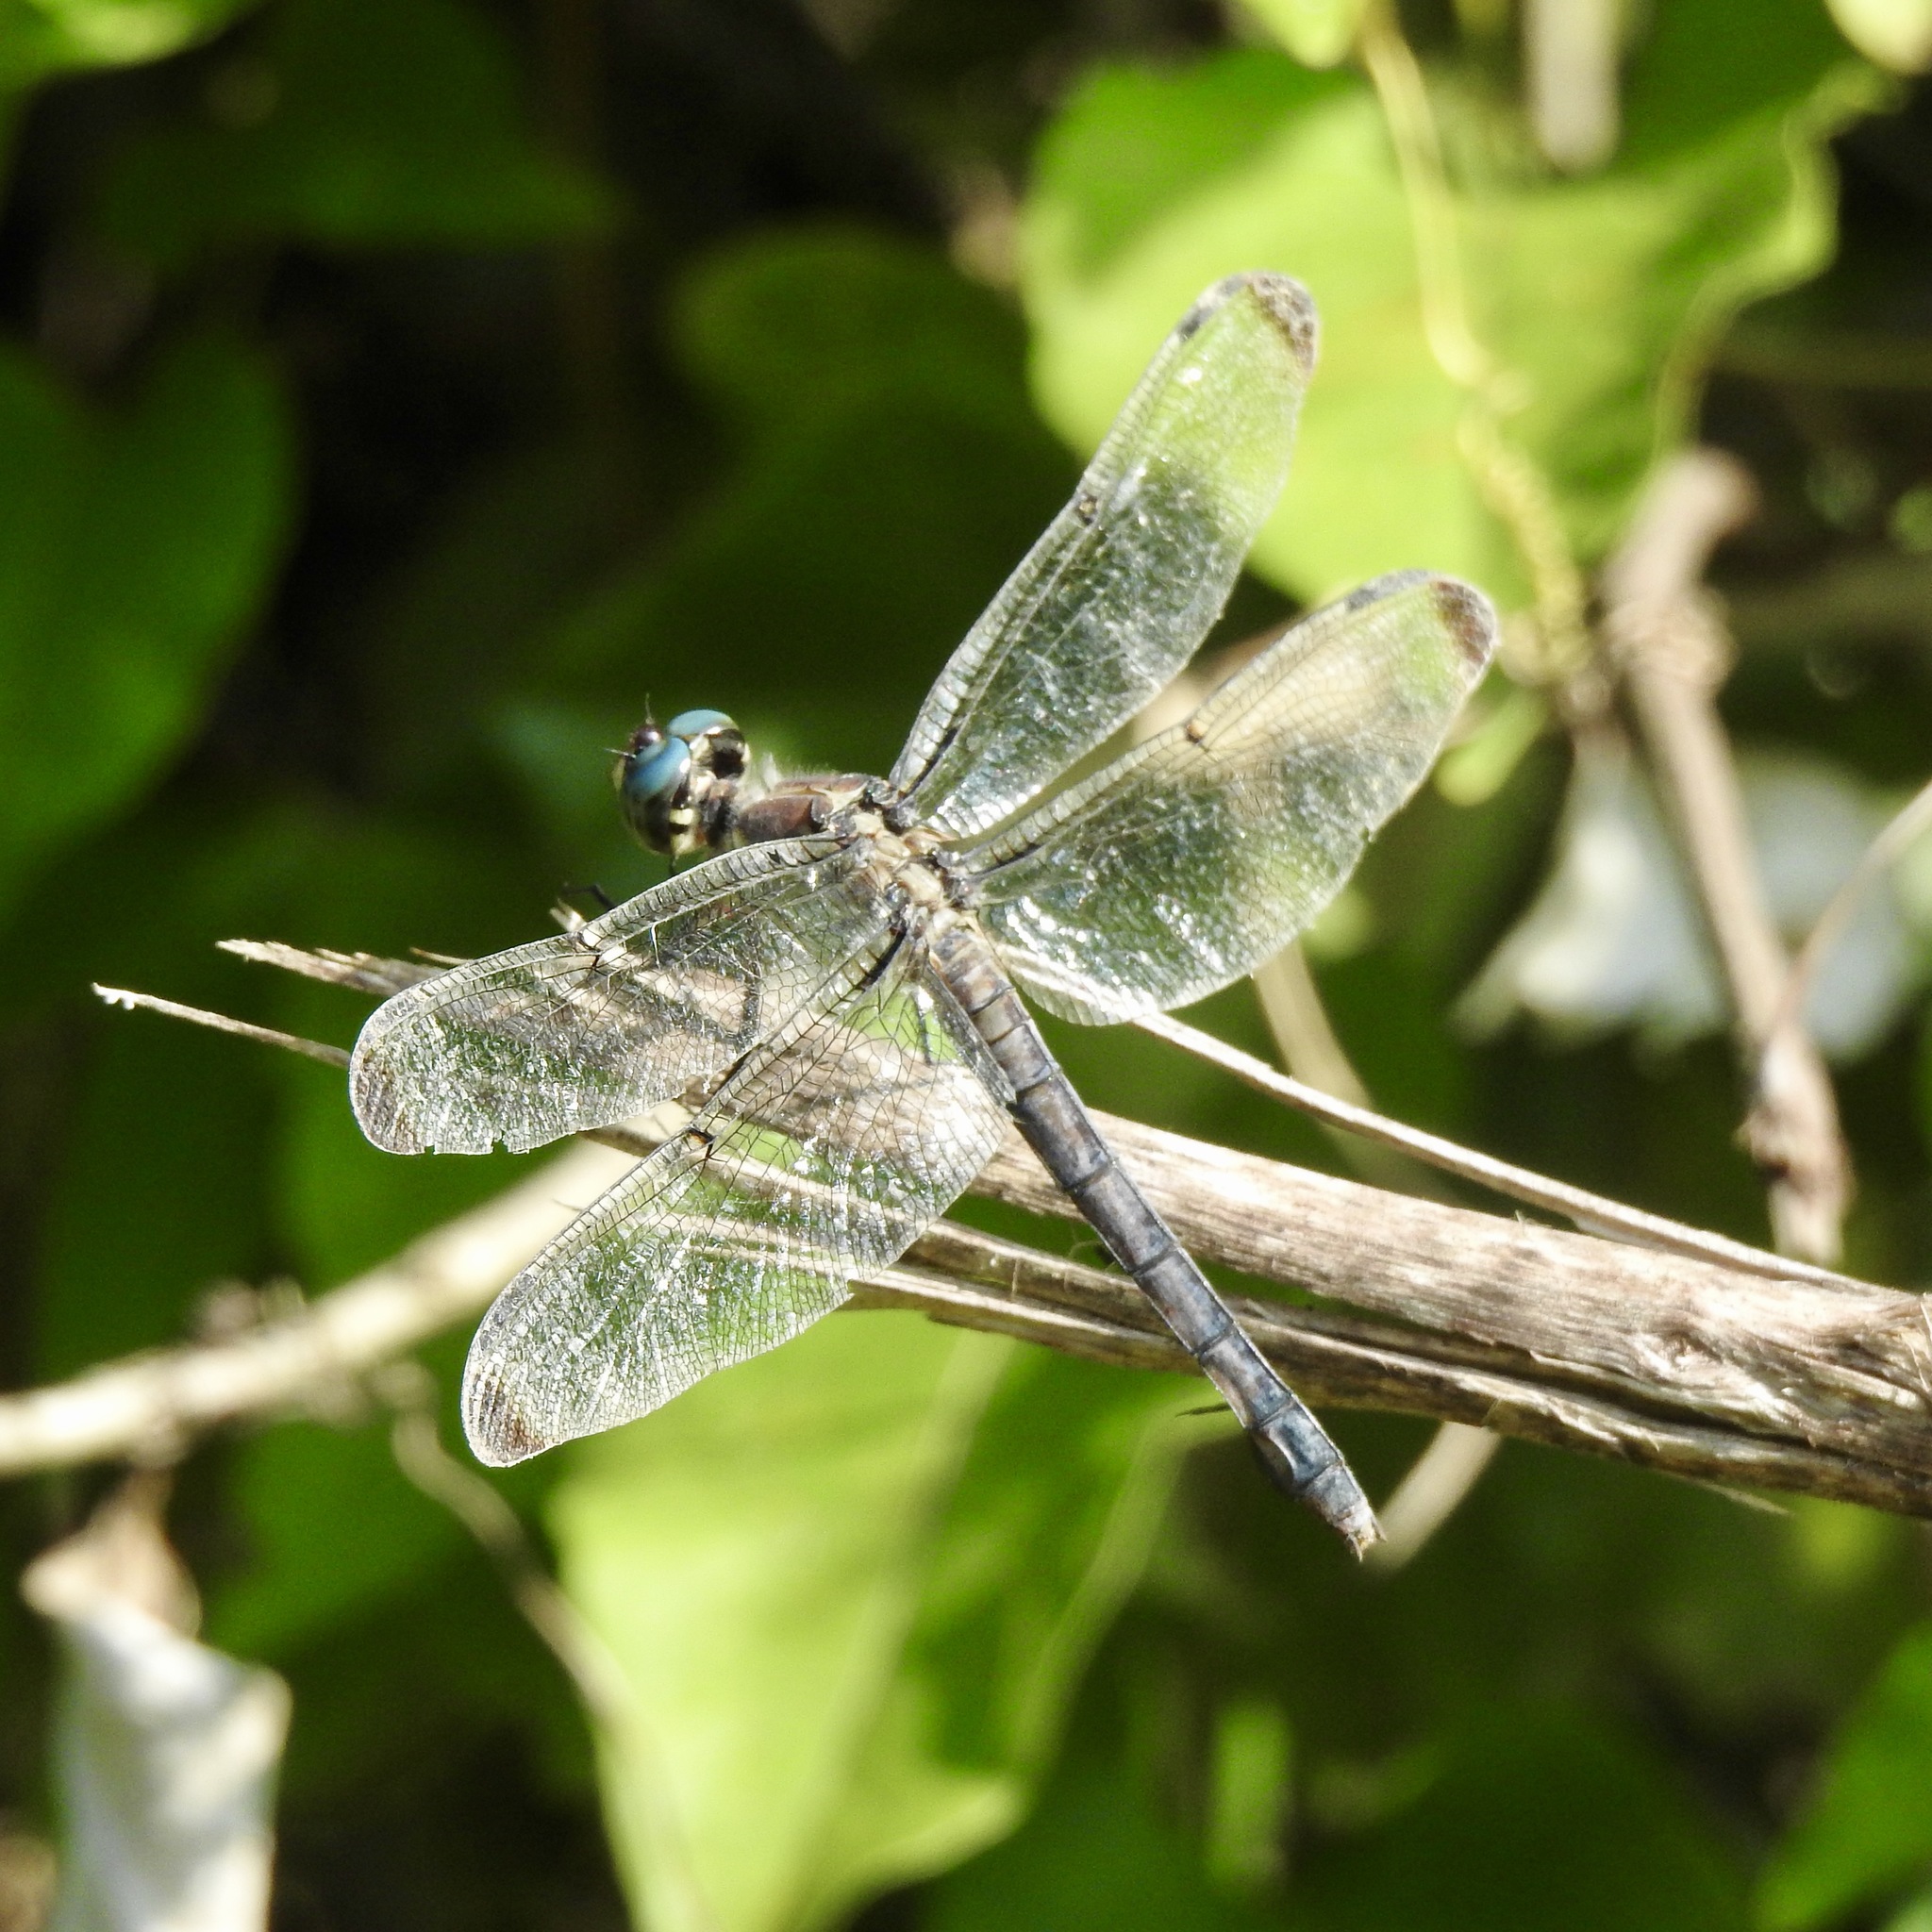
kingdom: Animalia
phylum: Arthropoda
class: Insecta
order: Odonata
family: Libellulidae
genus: Libellula
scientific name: Libellula vibrans
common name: Great blue skimmer
